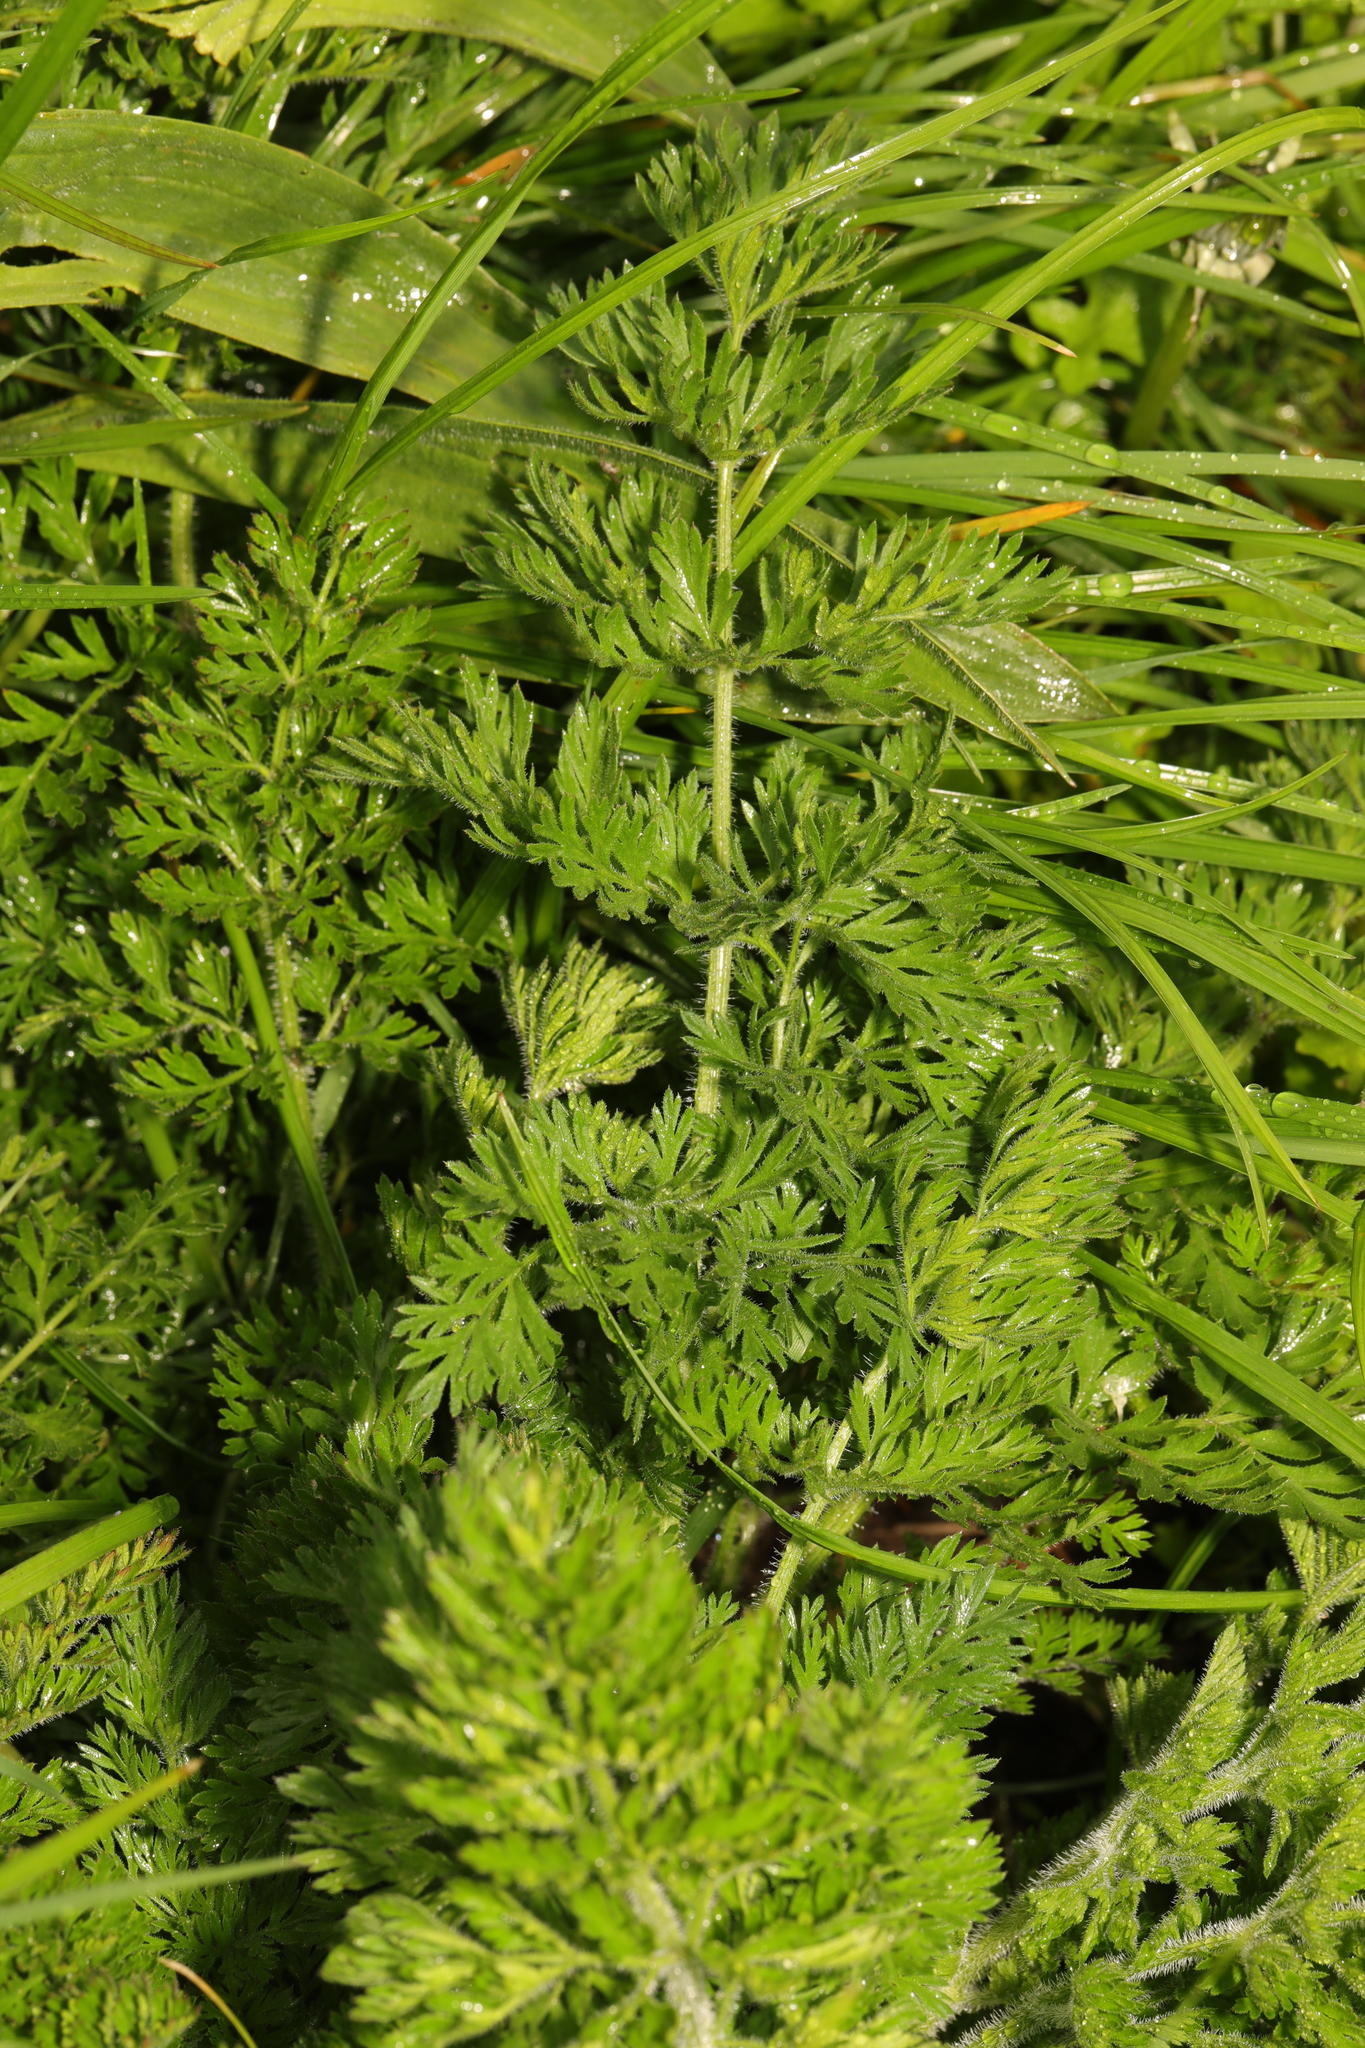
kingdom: Plantae
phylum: Tracheophyta
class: Magnoliopsida
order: Apiales
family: Apiaceae
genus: Daucus
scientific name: Daucus carota
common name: Wild carrot
